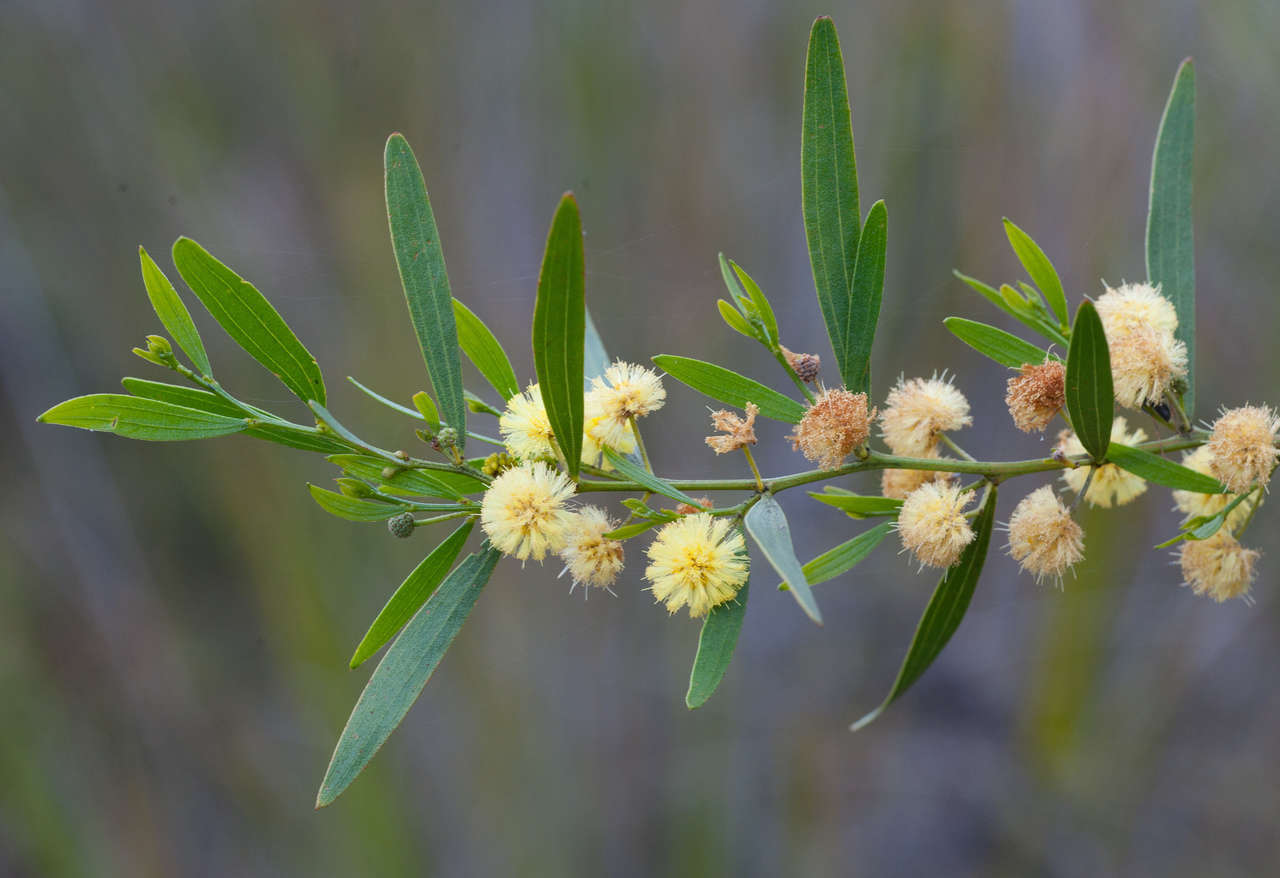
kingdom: Plantae
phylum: Tracheophyta
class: Magnoliopsida
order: Fabales
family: Fabaceae
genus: Acacia
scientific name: Acacia verniciflua
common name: Varnish wattle
